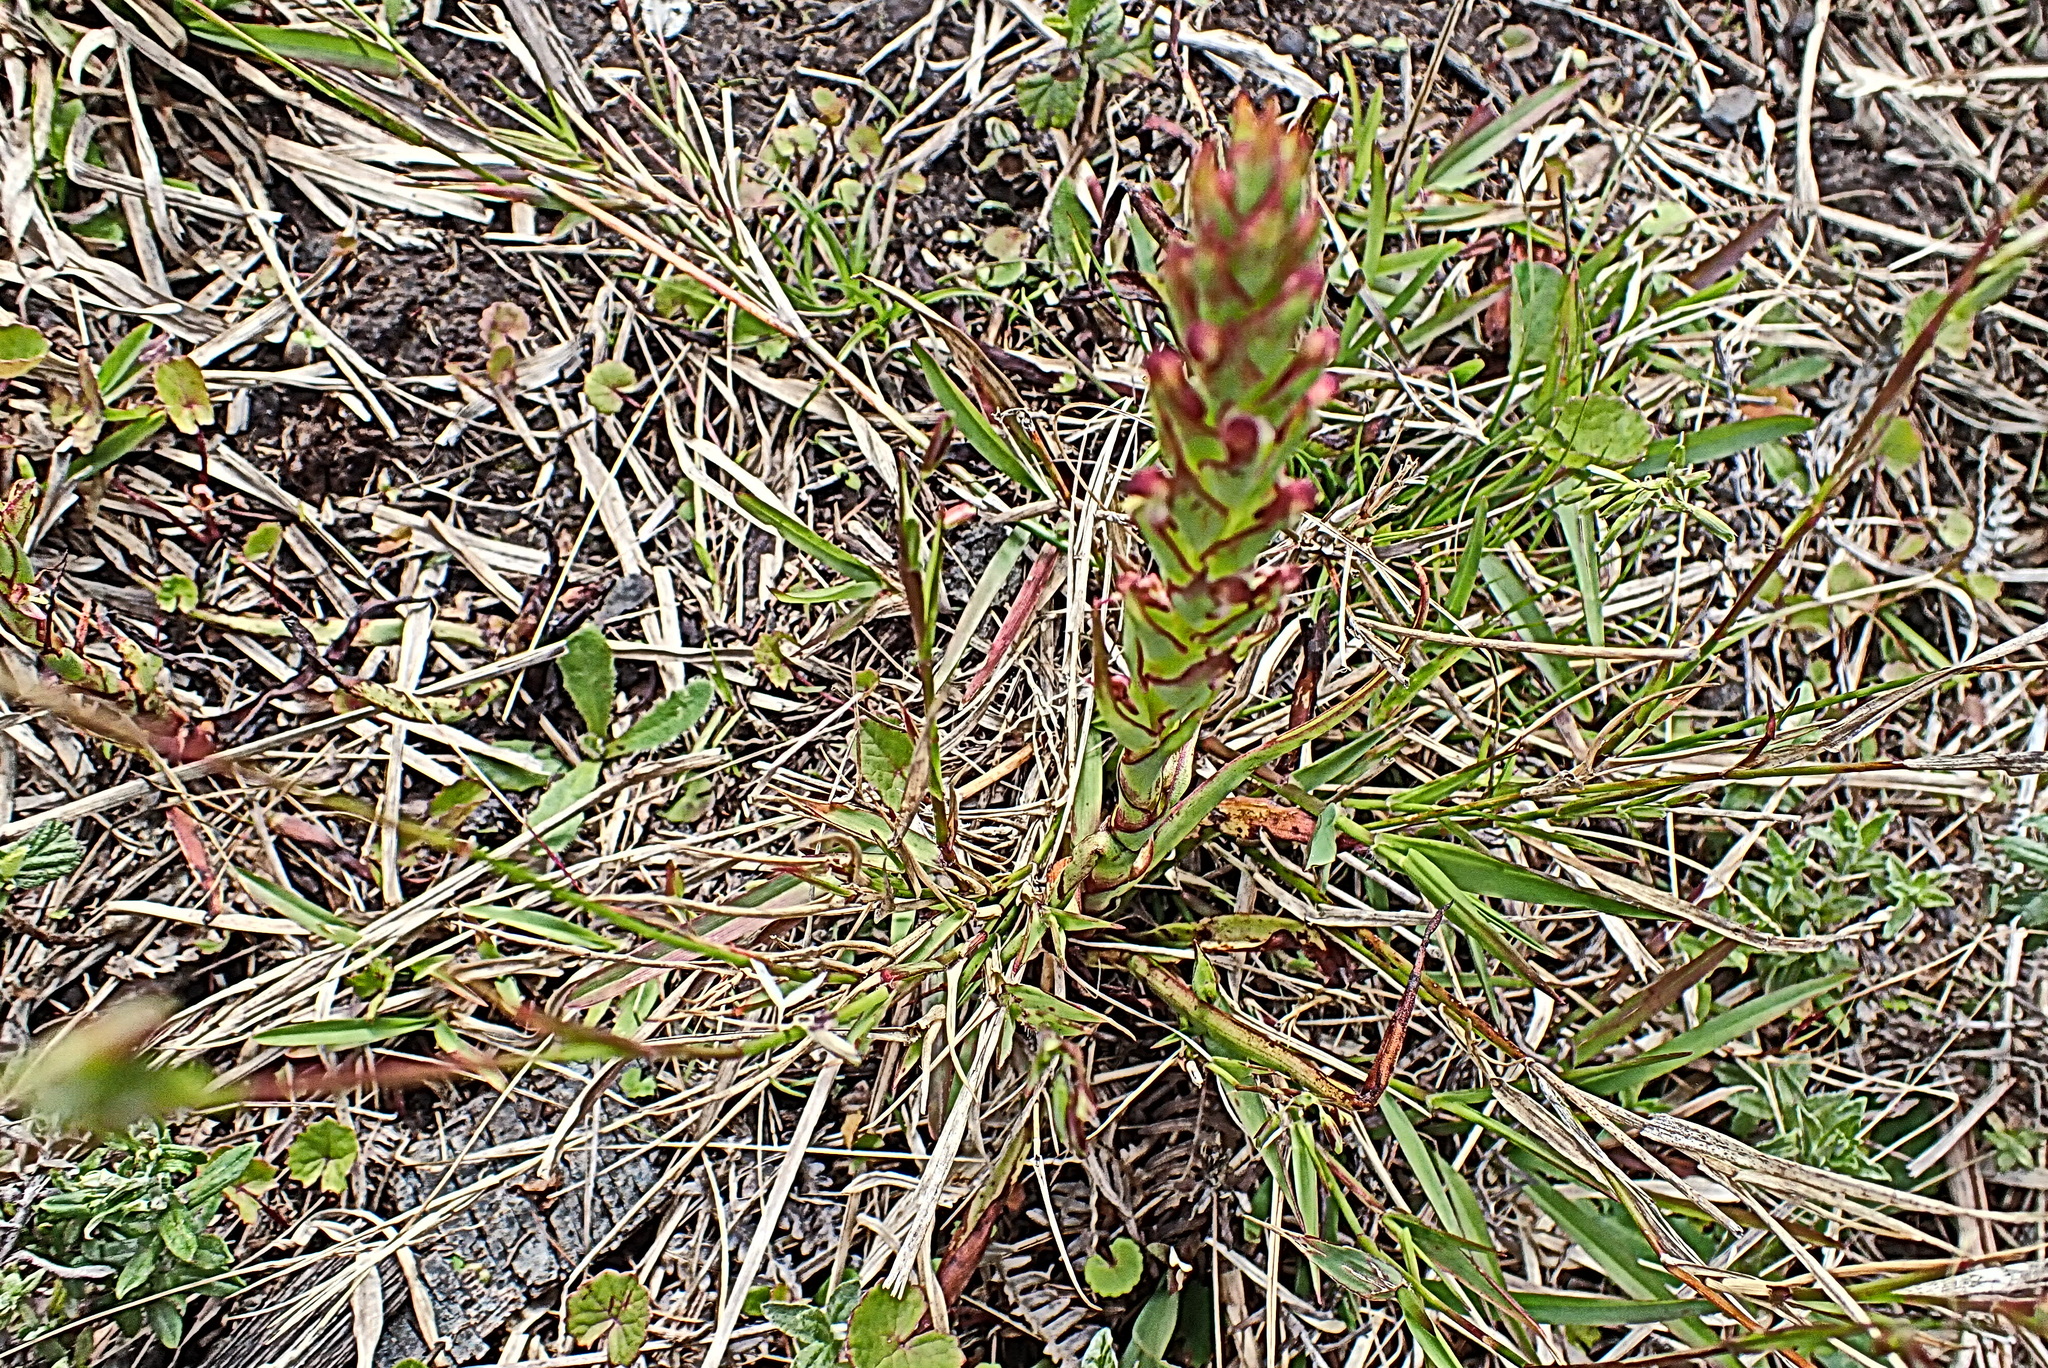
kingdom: Plantae
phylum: Tracheophyta
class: Liliopsida
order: Asparagales
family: Orchidaceae
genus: Disa
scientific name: Disa bracteata
